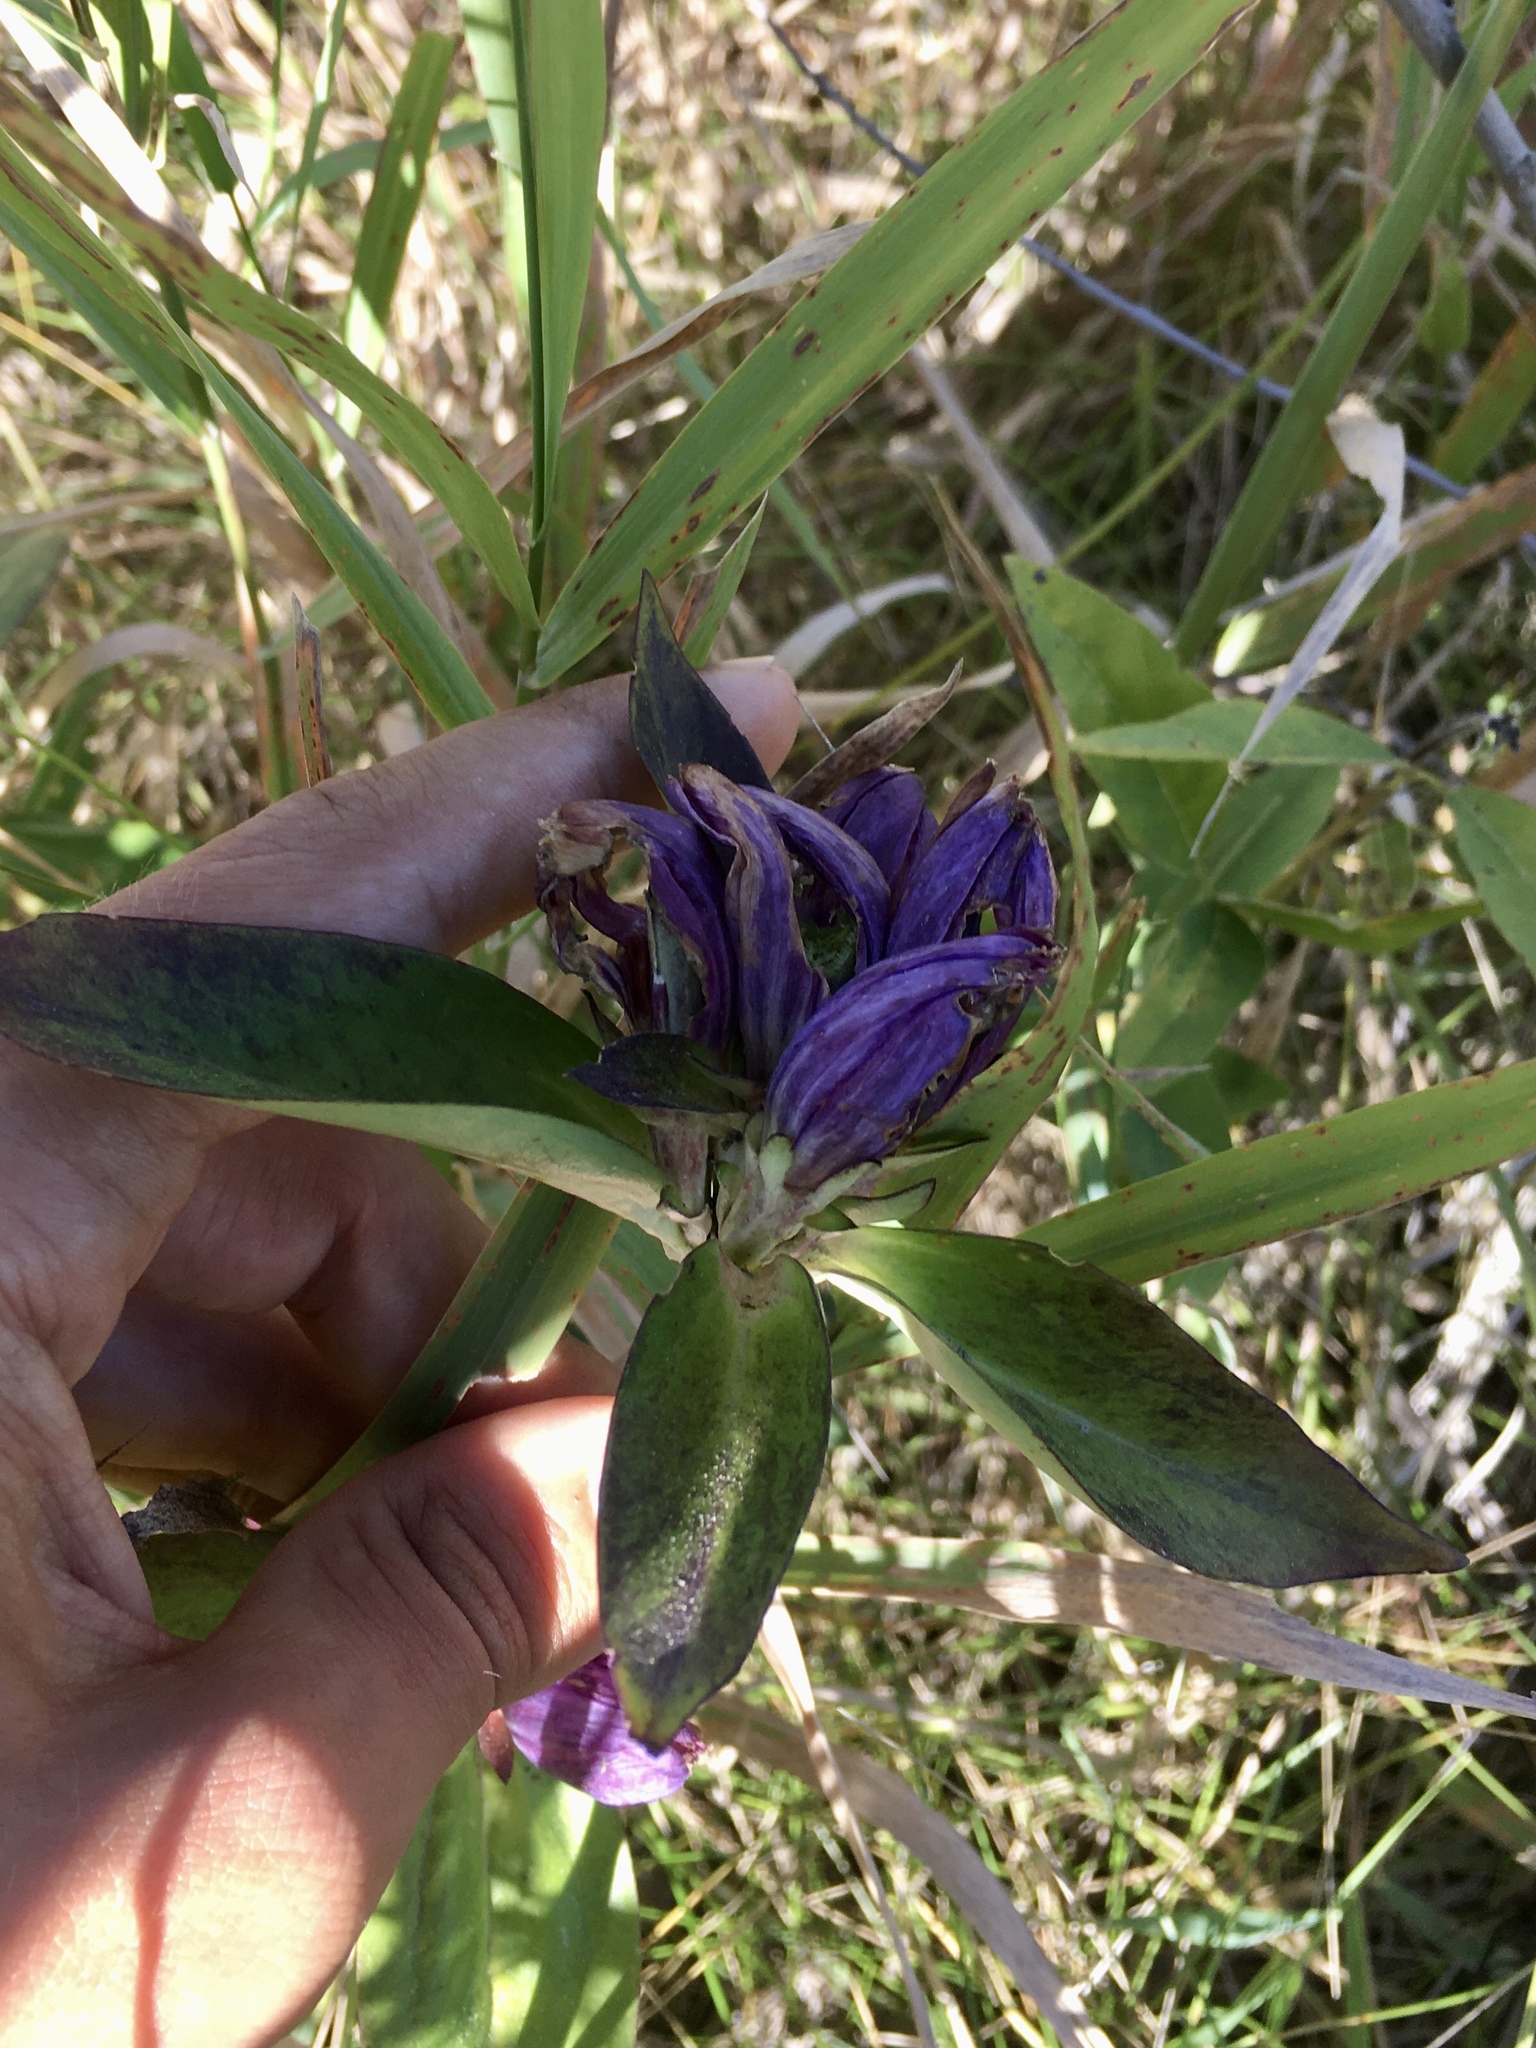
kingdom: Plantae
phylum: Tracheophyta
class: Magnoliopsida
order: Gentianales
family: Gentianaceae
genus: Gentiana
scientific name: Gentiana andrewsii
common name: Bottle gentian
